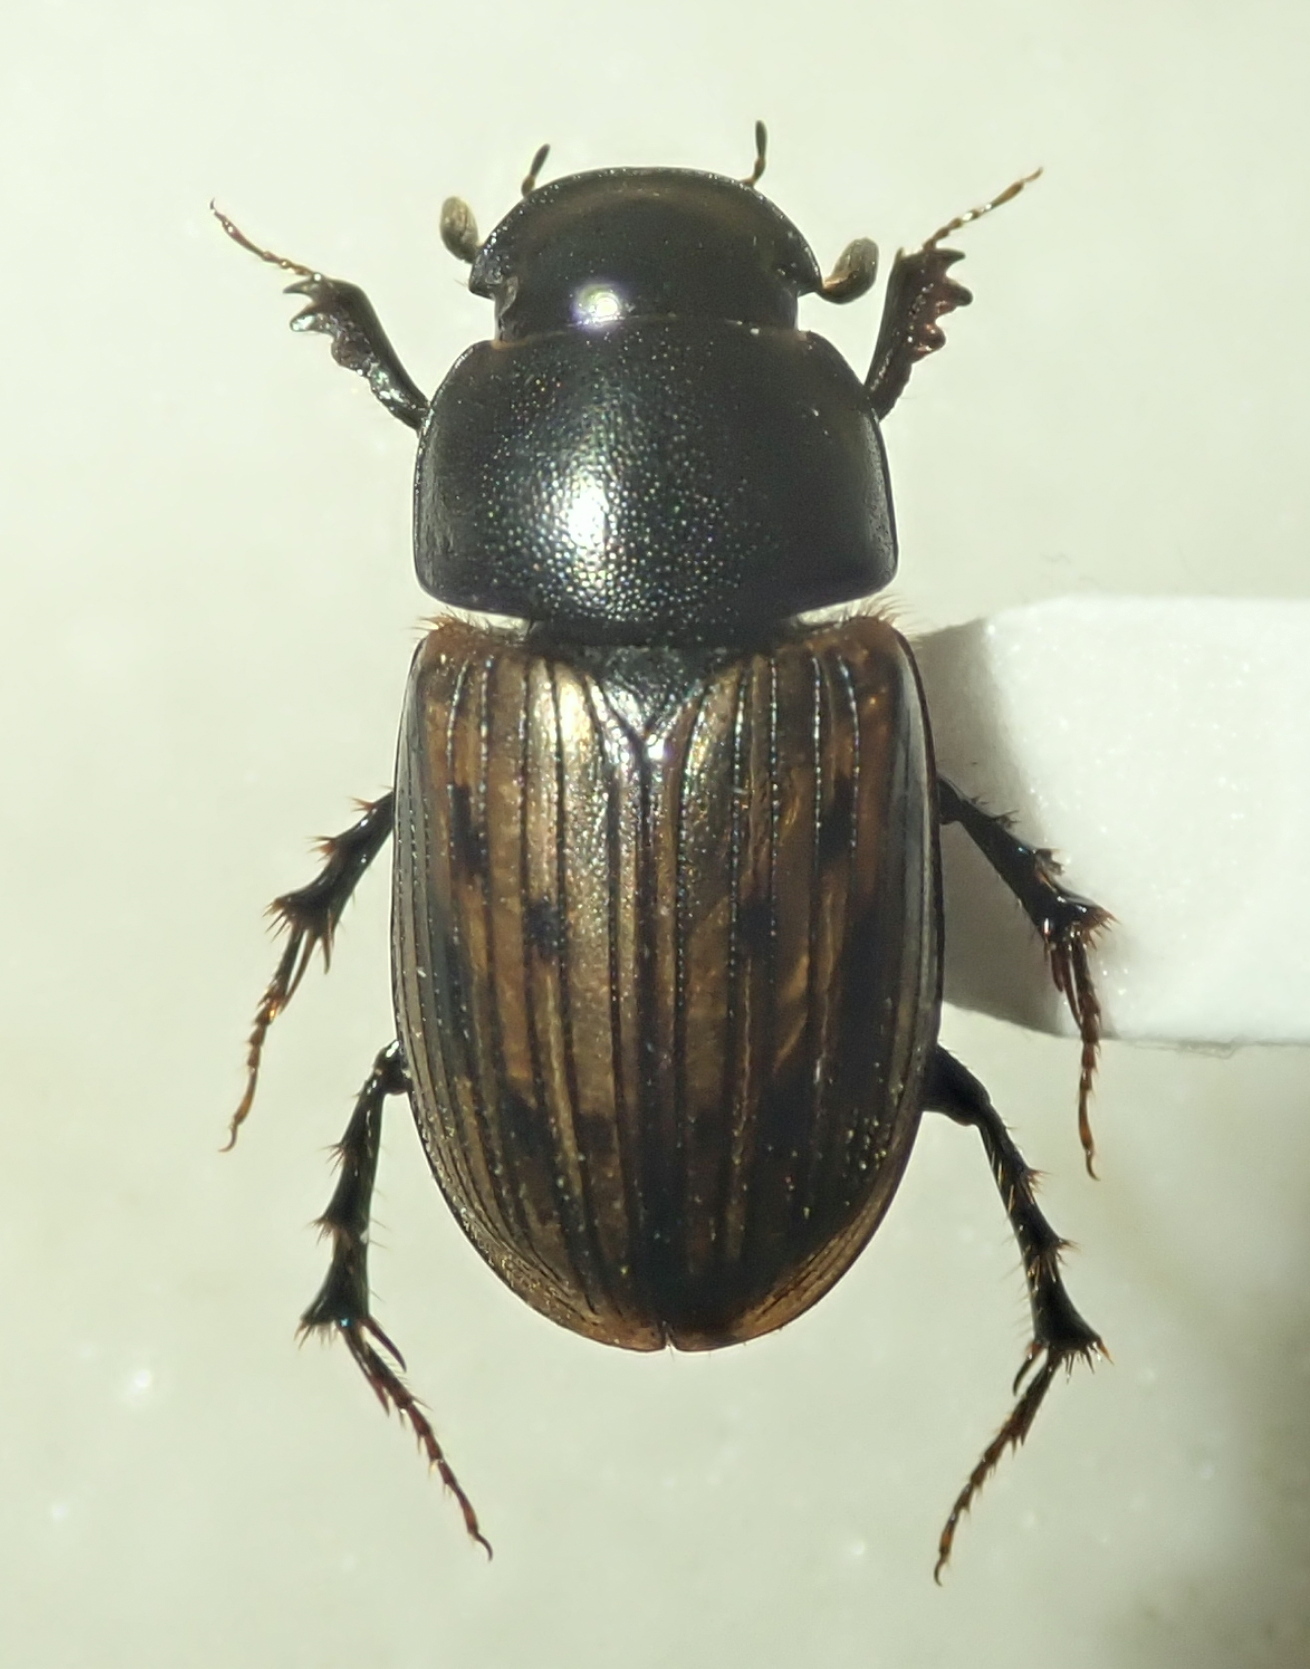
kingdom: Animalia
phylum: Arthropoda
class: Insecta
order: Coleoptera
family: Scarabaeidae
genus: Acrossus
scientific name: Acrossus luridus
